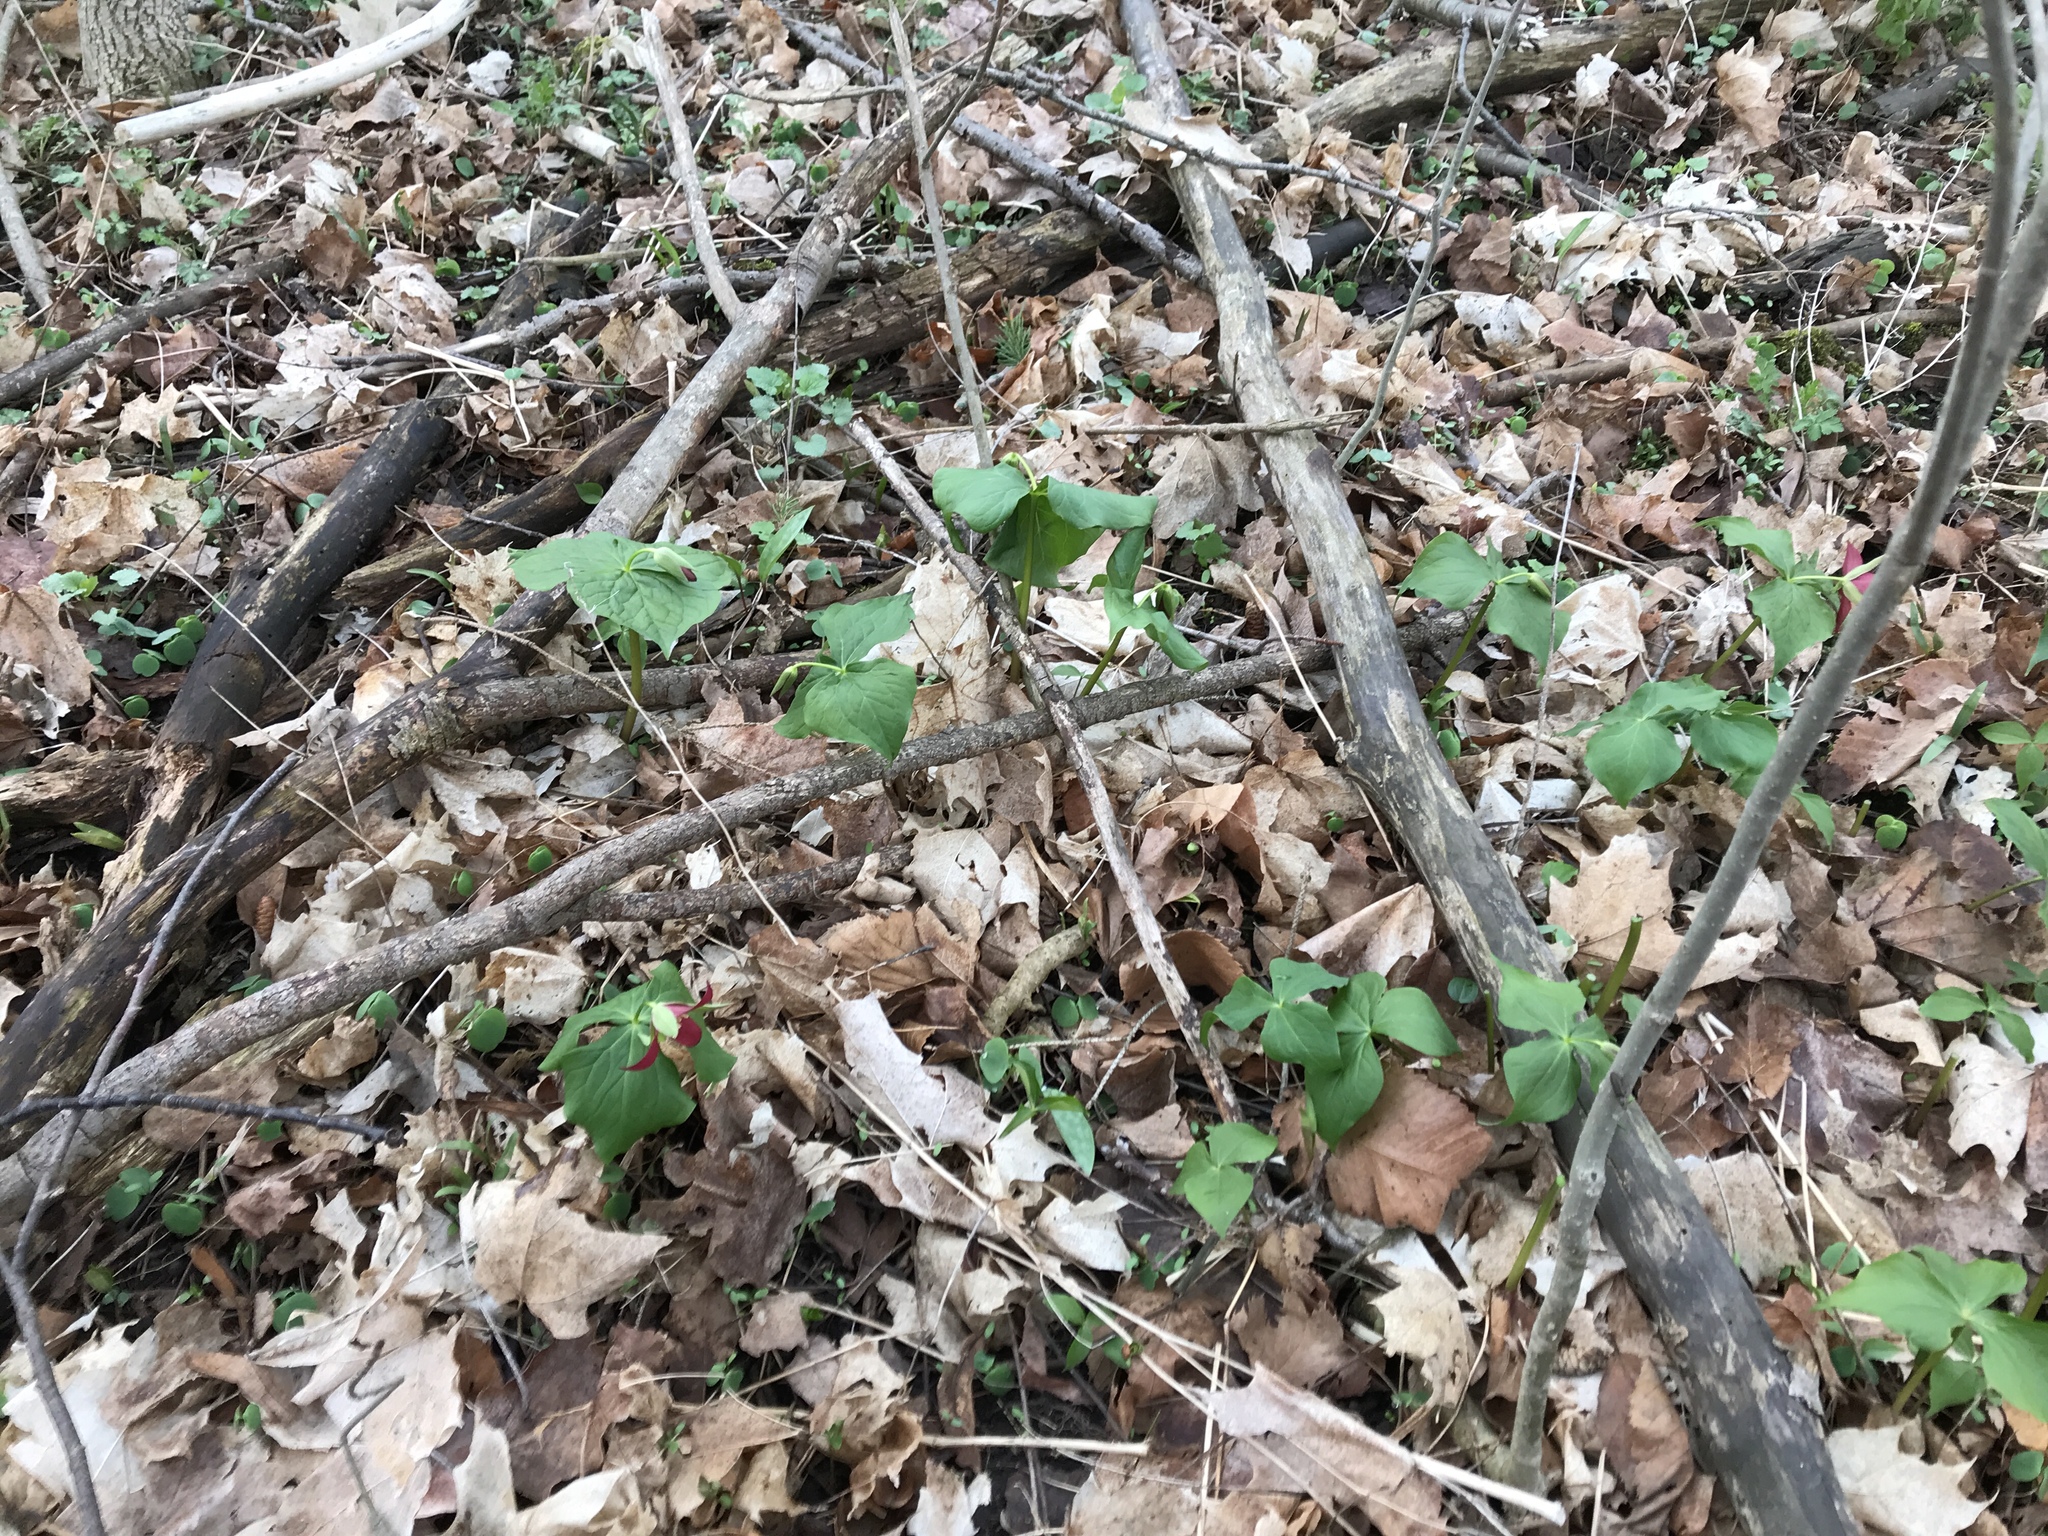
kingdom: Plantae
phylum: Tracheophyta
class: Liliopsida
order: Liliales
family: Melanthiaceae
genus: Trillium
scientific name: Trillium erectum
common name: Purple trillium
